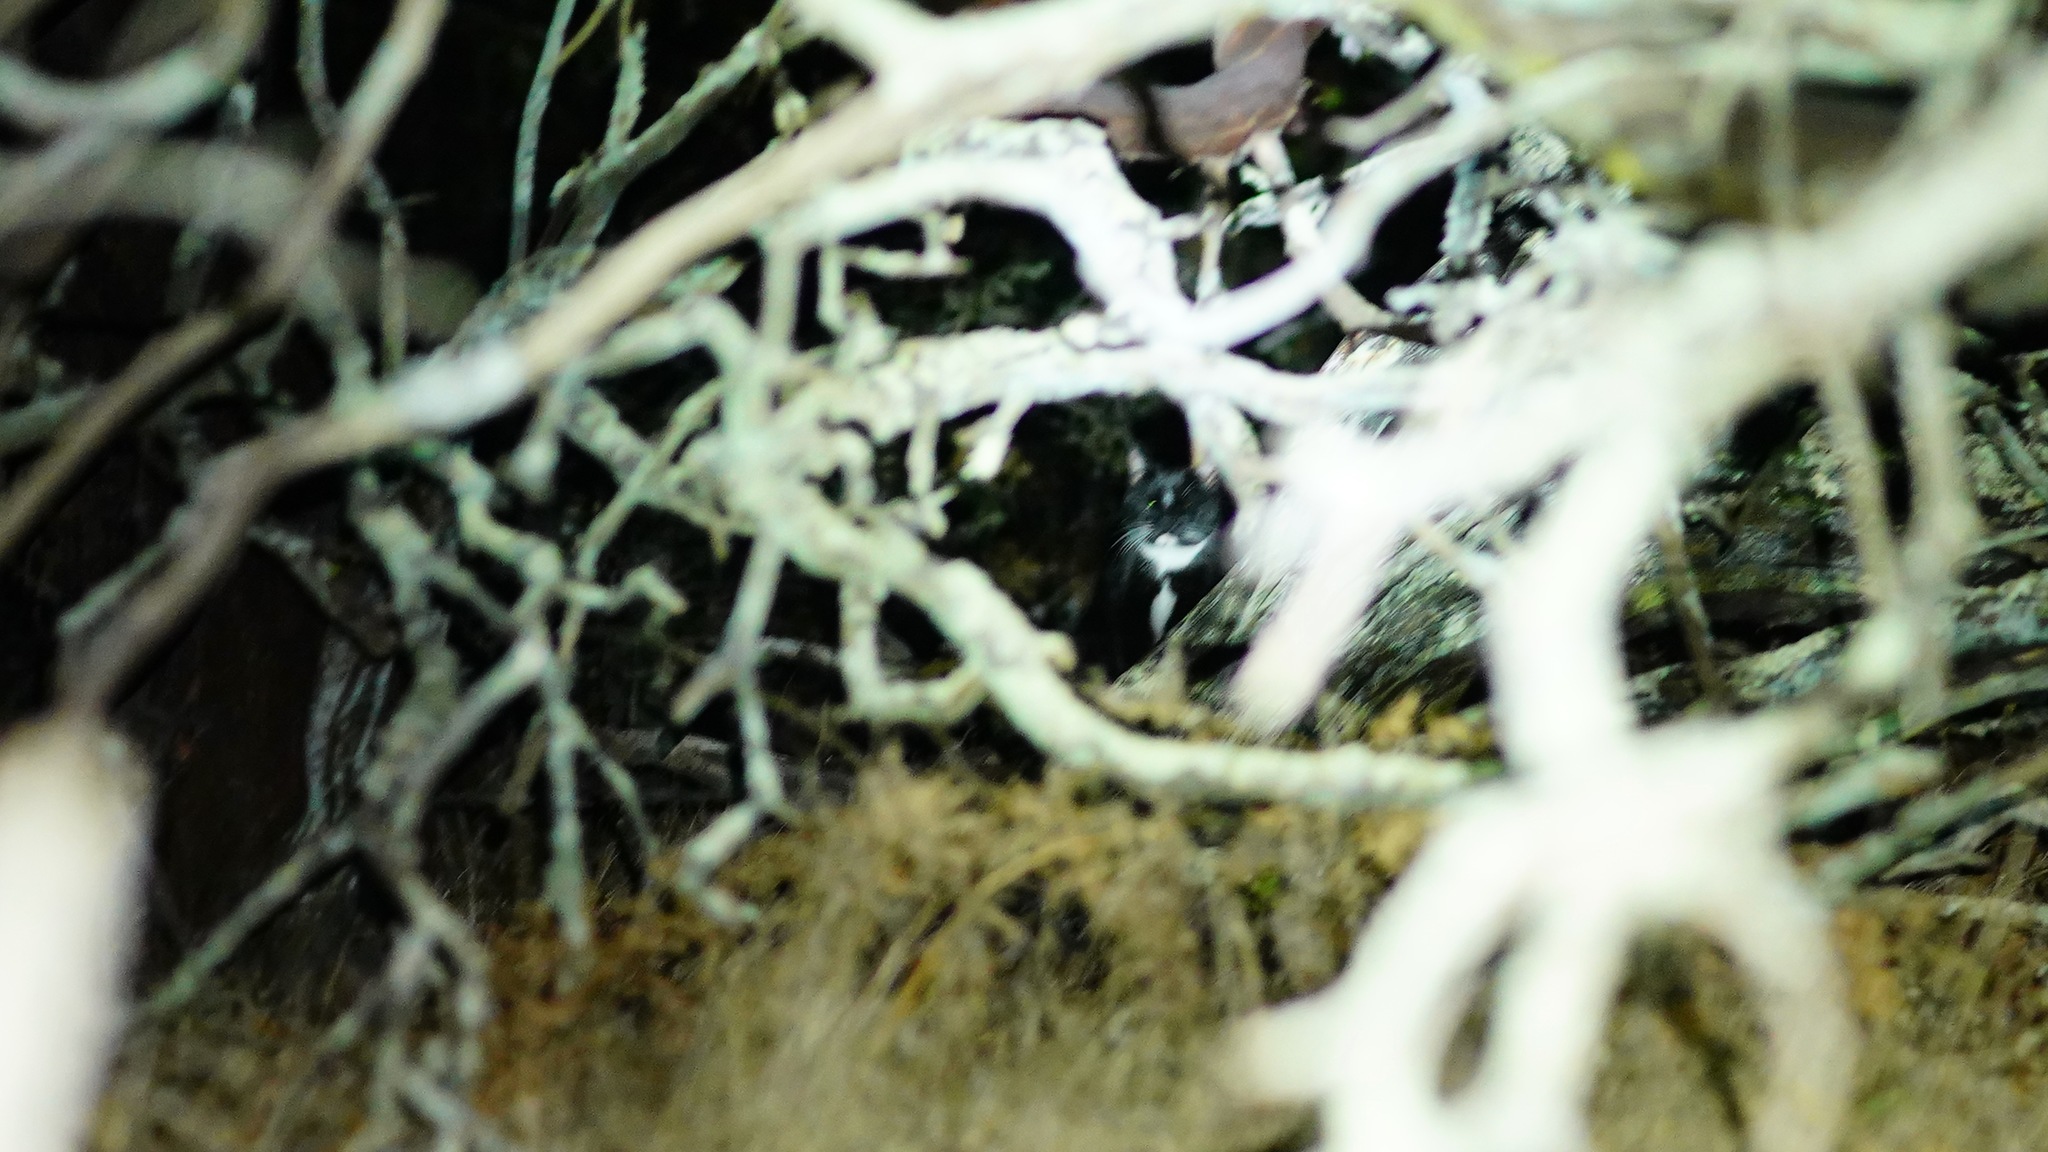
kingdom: Animalia
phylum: Chordata
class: Mammalia
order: Carnivora
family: Felidae
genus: Felis
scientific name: Felis catus
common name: Domestic cat
